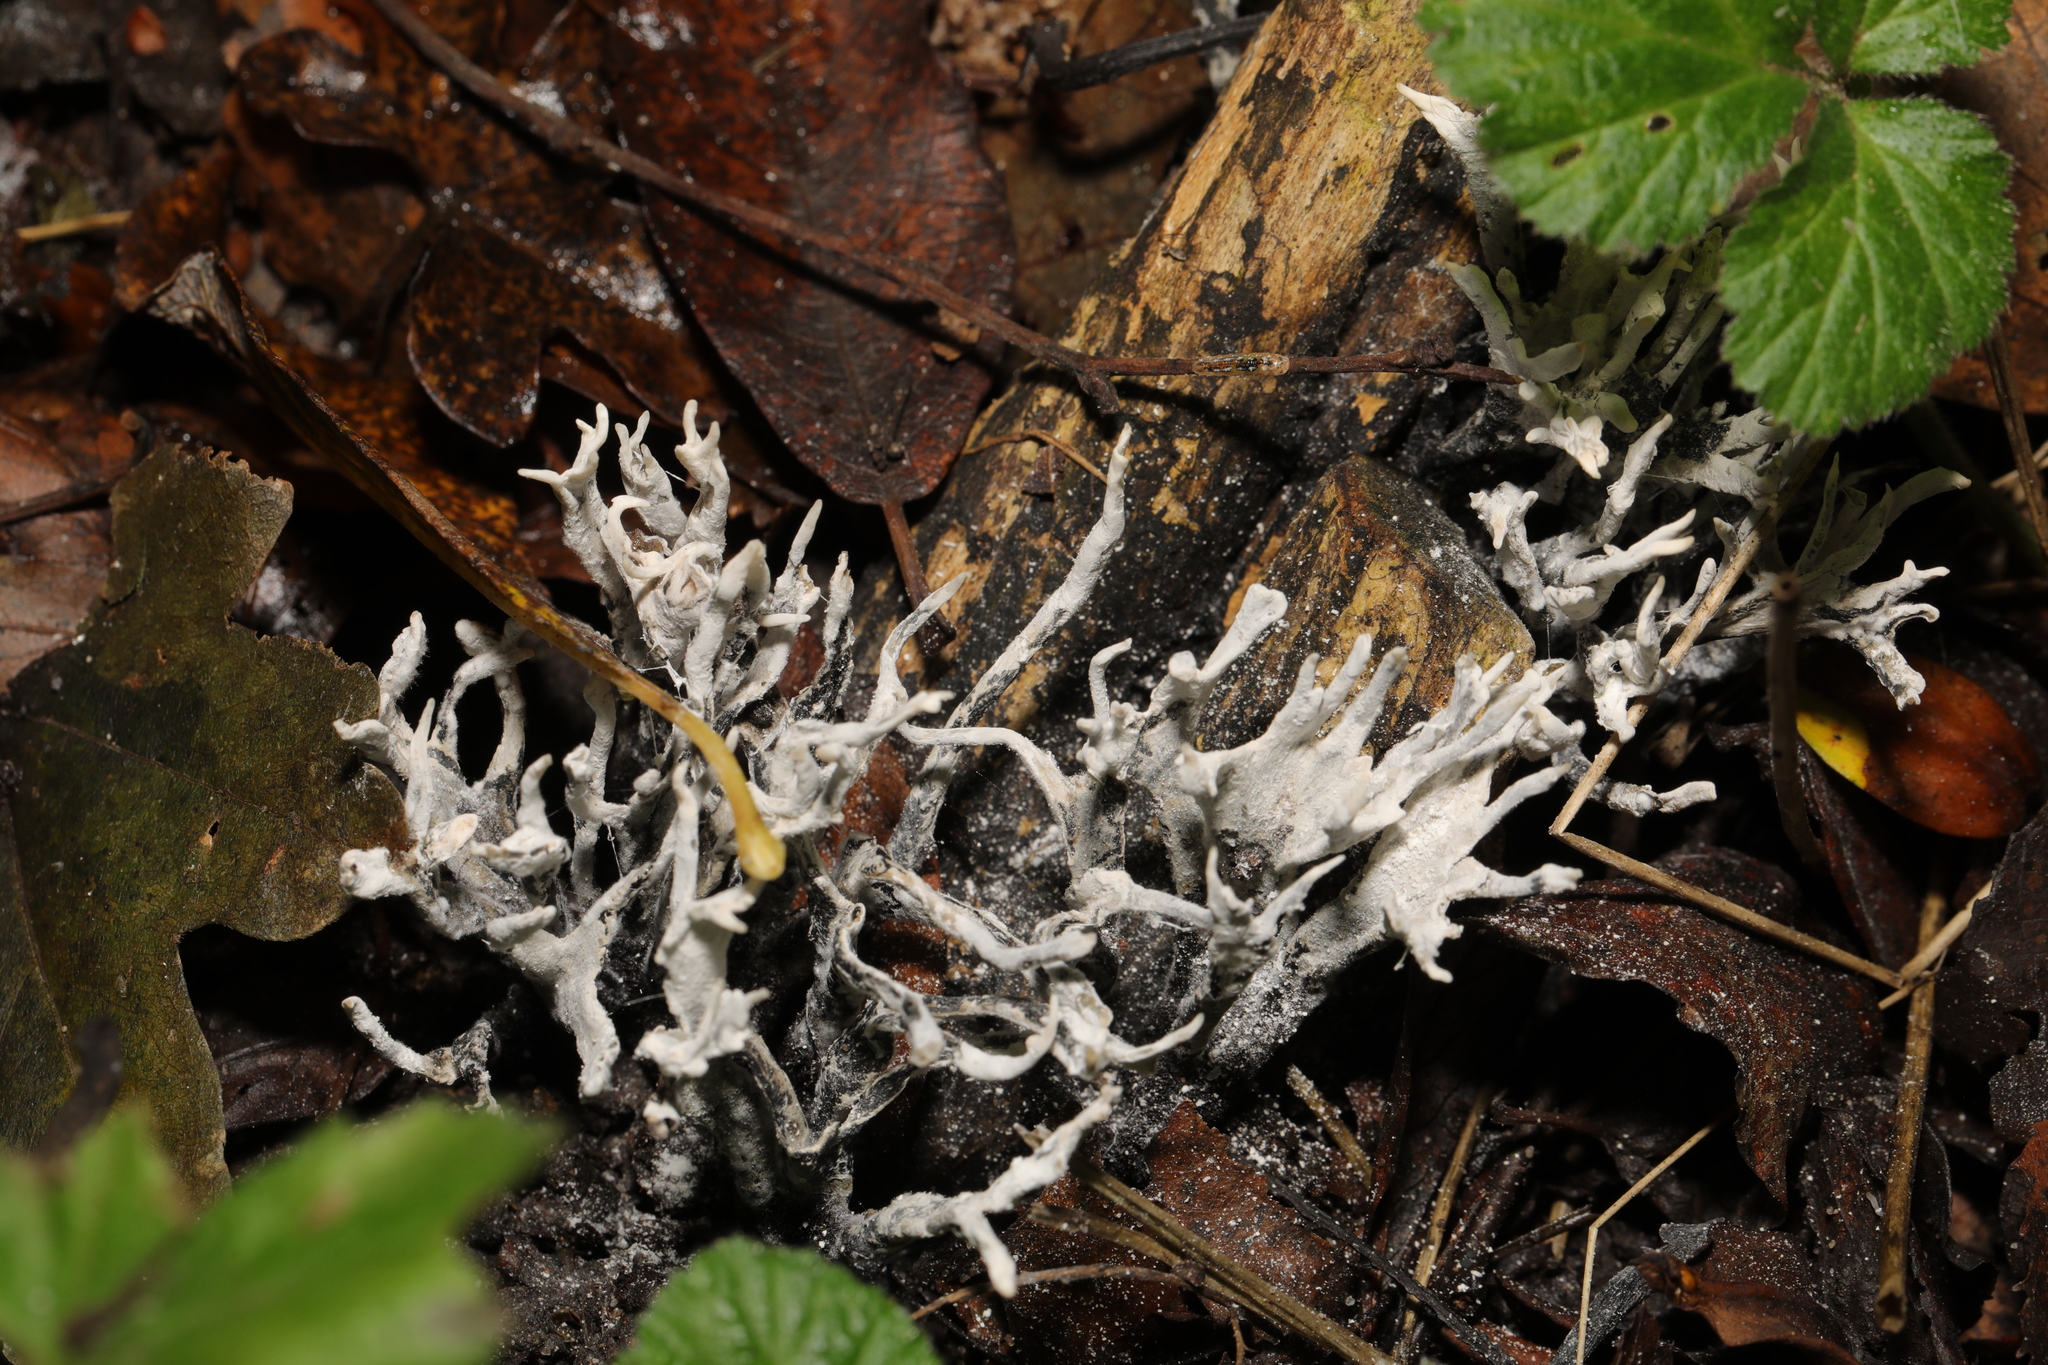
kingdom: Fungi
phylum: Ascomycota
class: Sordariomycetes
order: Xylariales
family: Xylariaceae
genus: Xylaria
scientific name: Xylaria hypoxylon
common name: Candle-snuff fungus
